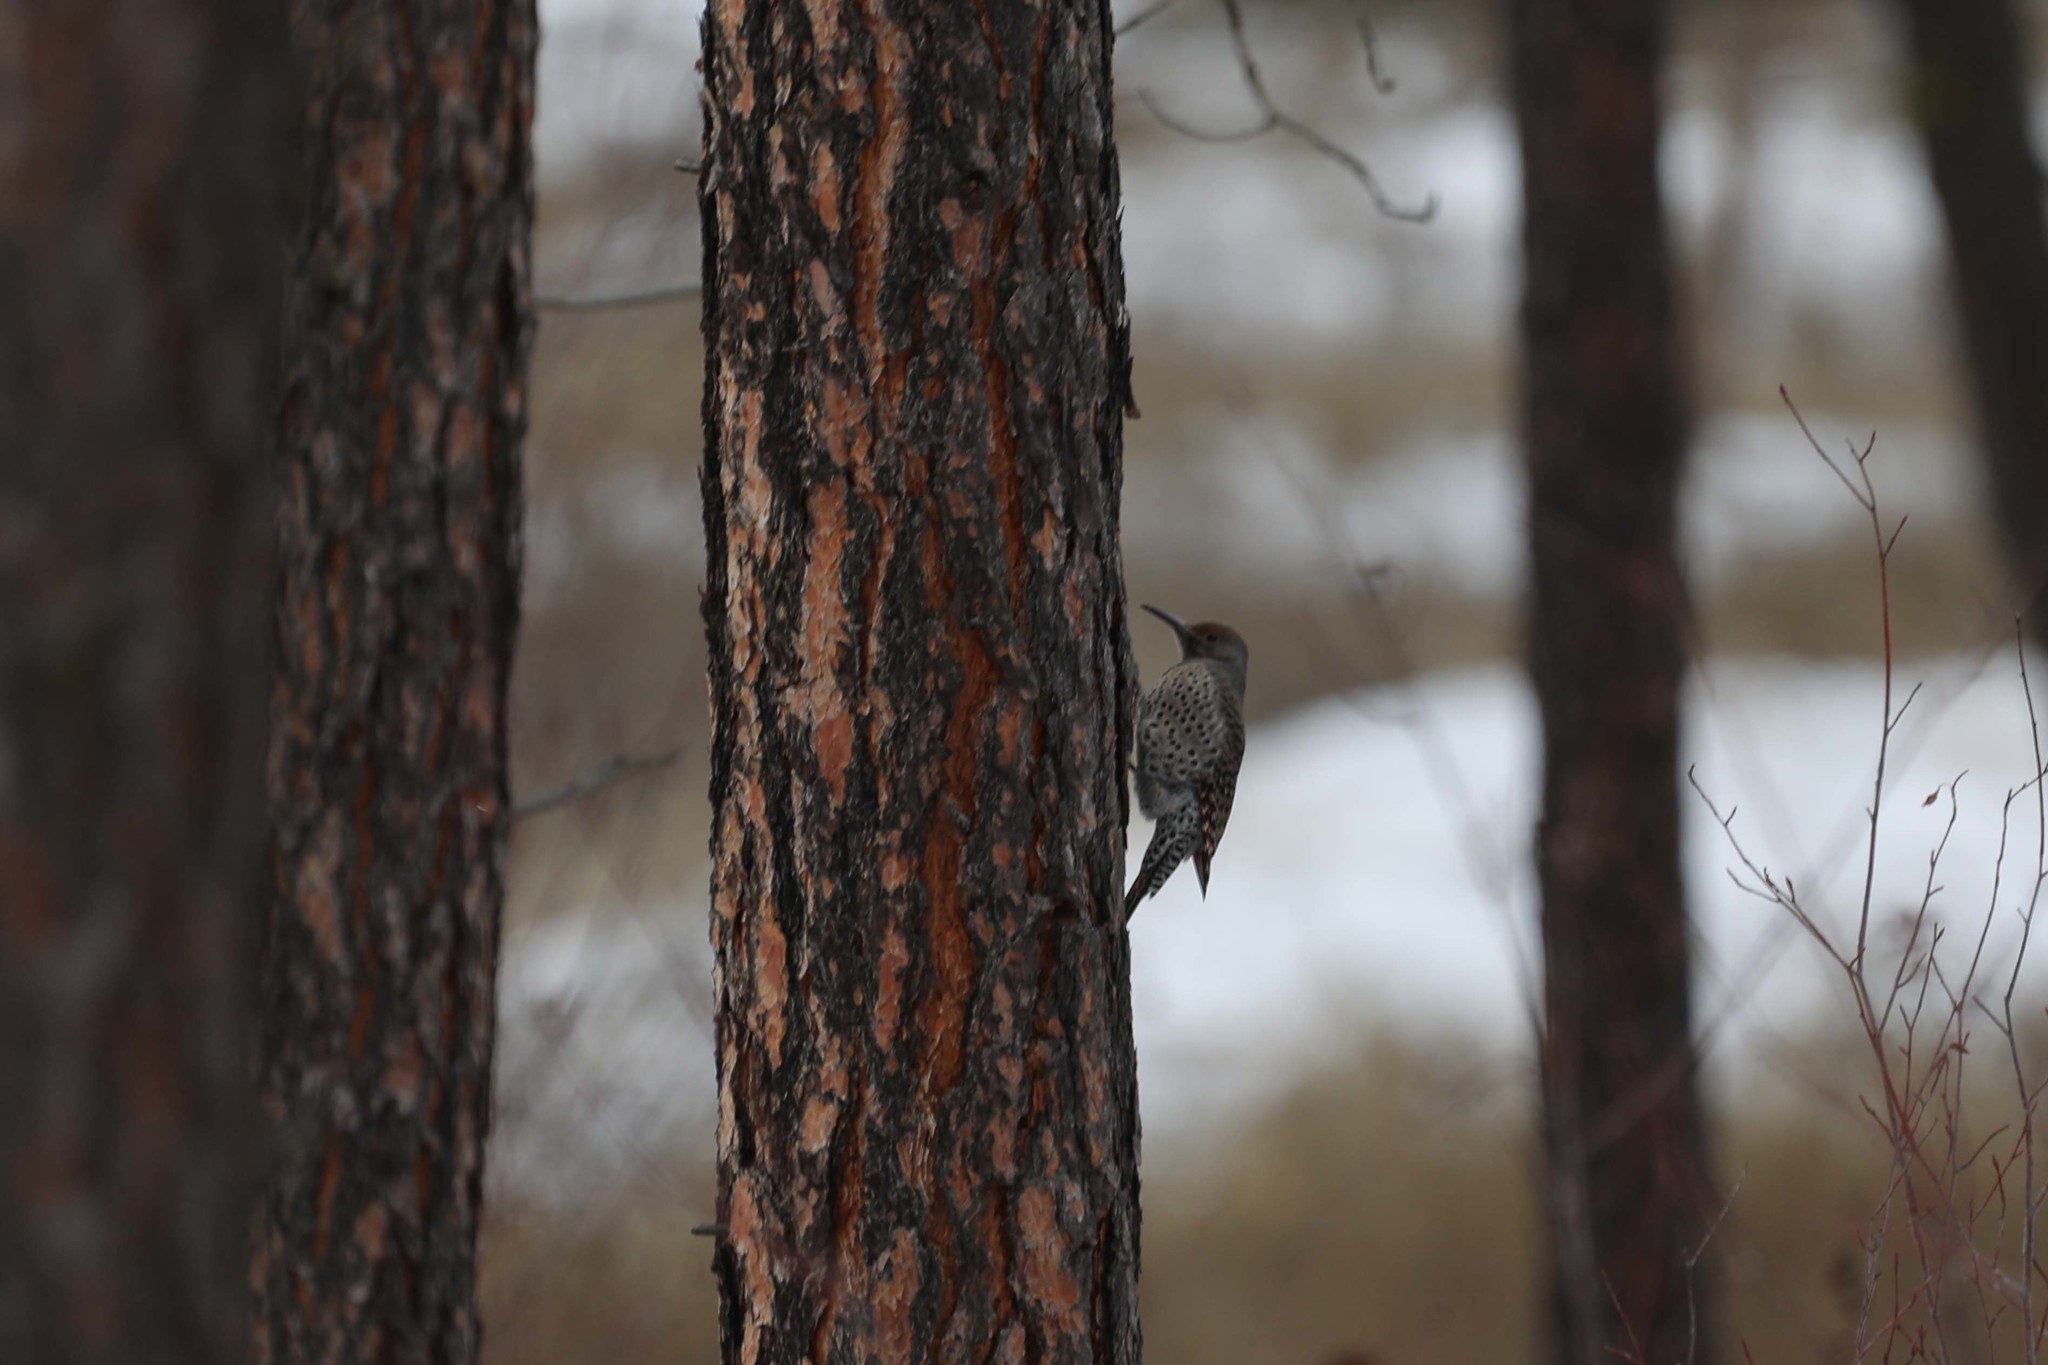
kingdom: Animalia
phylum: Chordata
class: Aves
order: Piciformes
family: Picidae
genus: Colaptes
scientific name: Colaptes auratus
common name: Northern flicker
